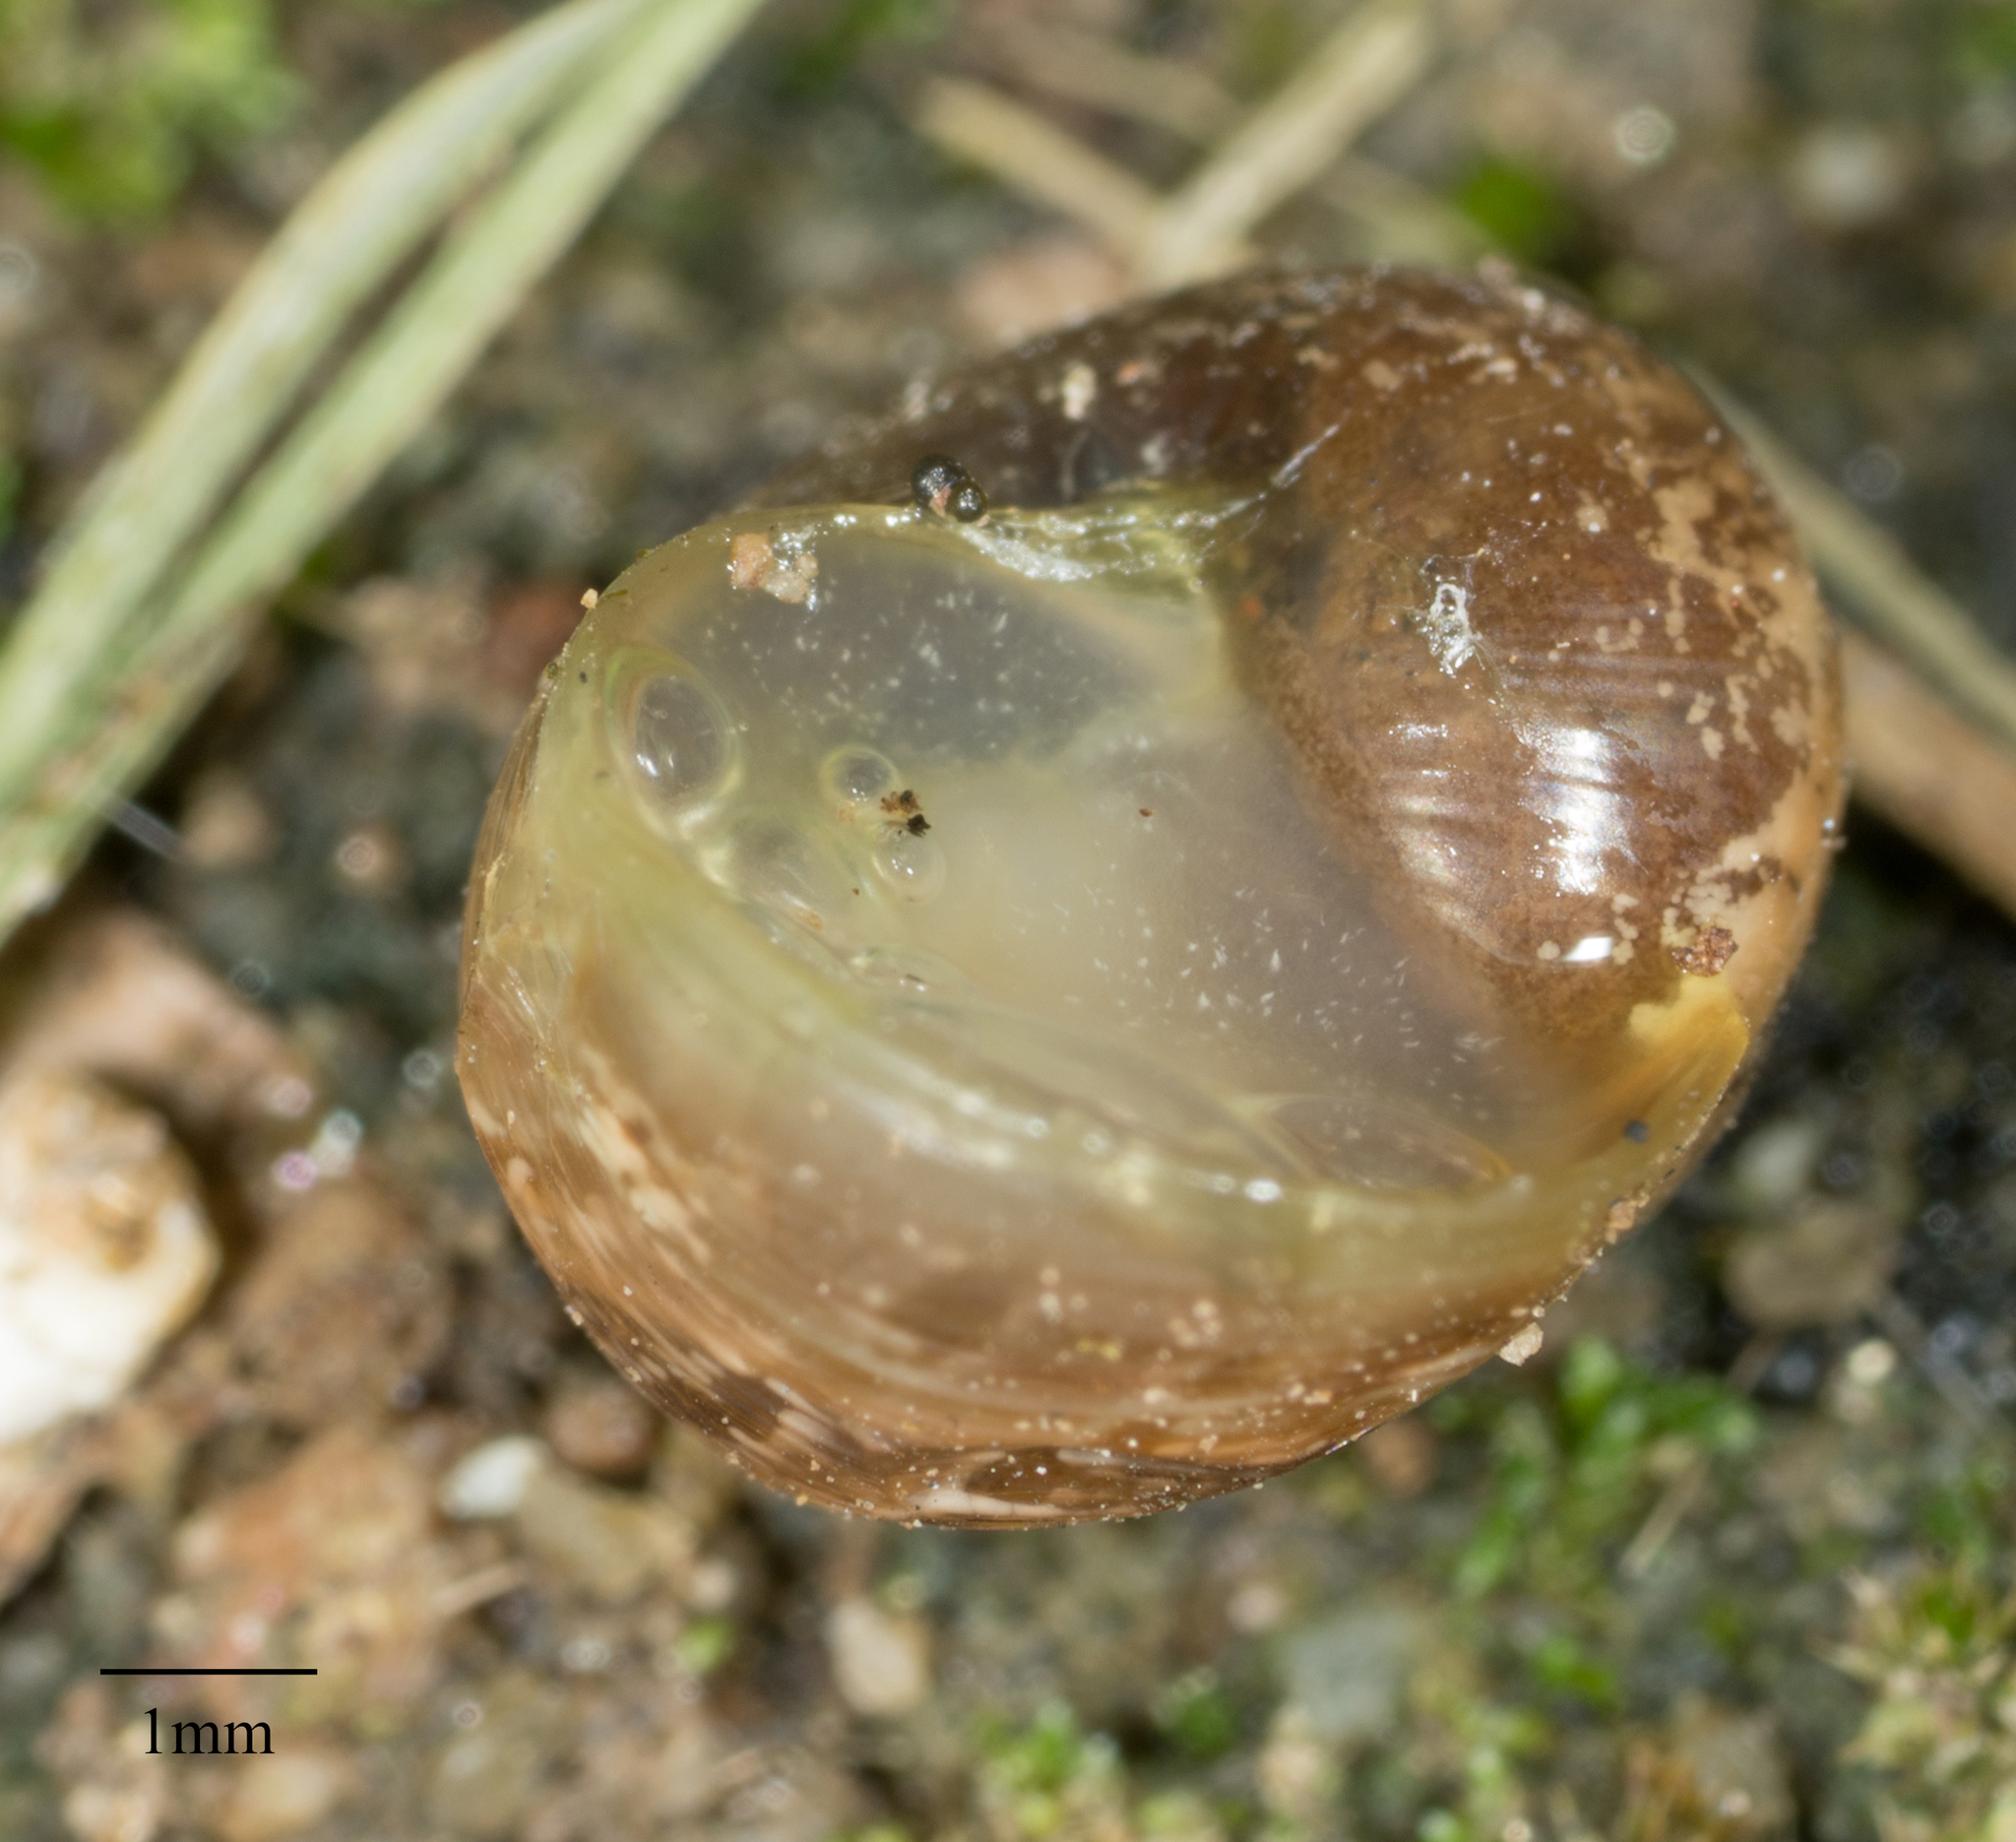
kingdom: Animalia
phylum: Mollusca
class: Gastropoda
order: Stylommatophora
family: Helicidae
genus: Cornu
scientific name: Cornu aspersum
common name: Brown garden snail
